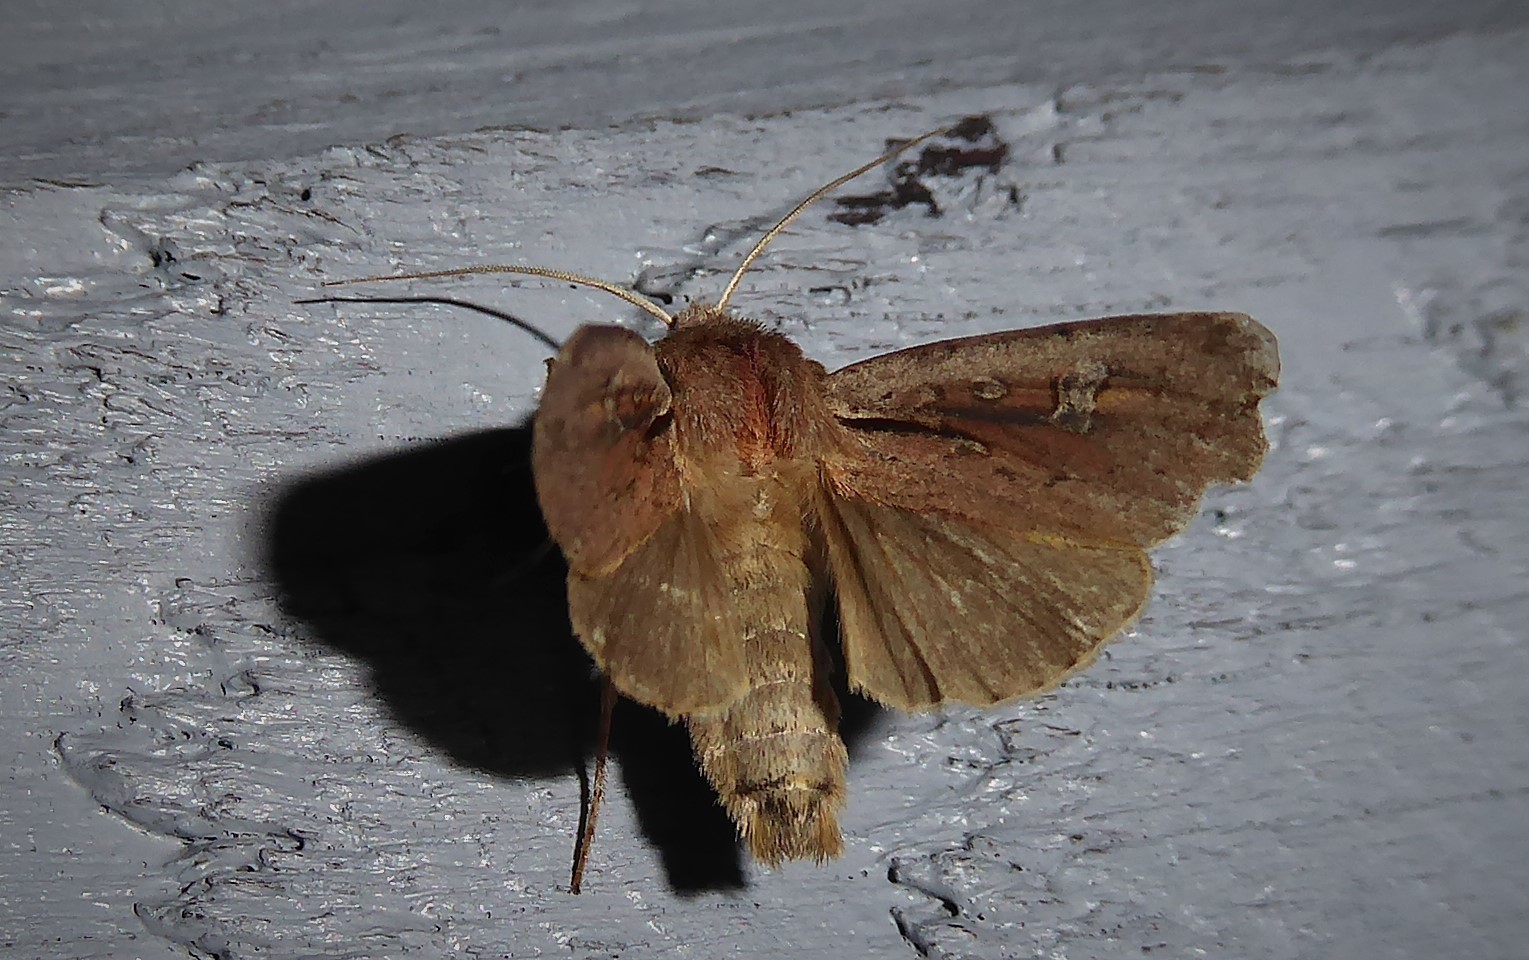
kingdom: Animalia
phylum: Arthropoda
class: Insecta
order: Lepidoptera
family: Noctuidae
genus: Ichneutica
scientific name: Ichneutica atristriga
